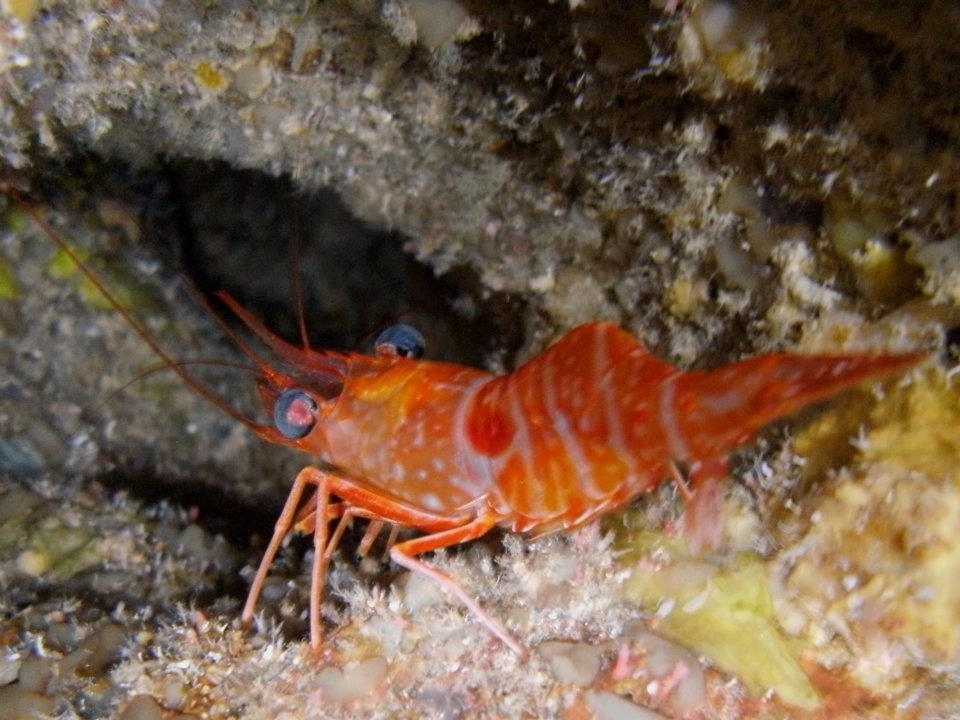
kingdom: Animalia
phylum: Arthropoda
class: Malacostraca
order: Decapoda
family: Rhynchocinetidae
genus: Cinetorhynchus
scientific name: Cinetorhynchus manningi
